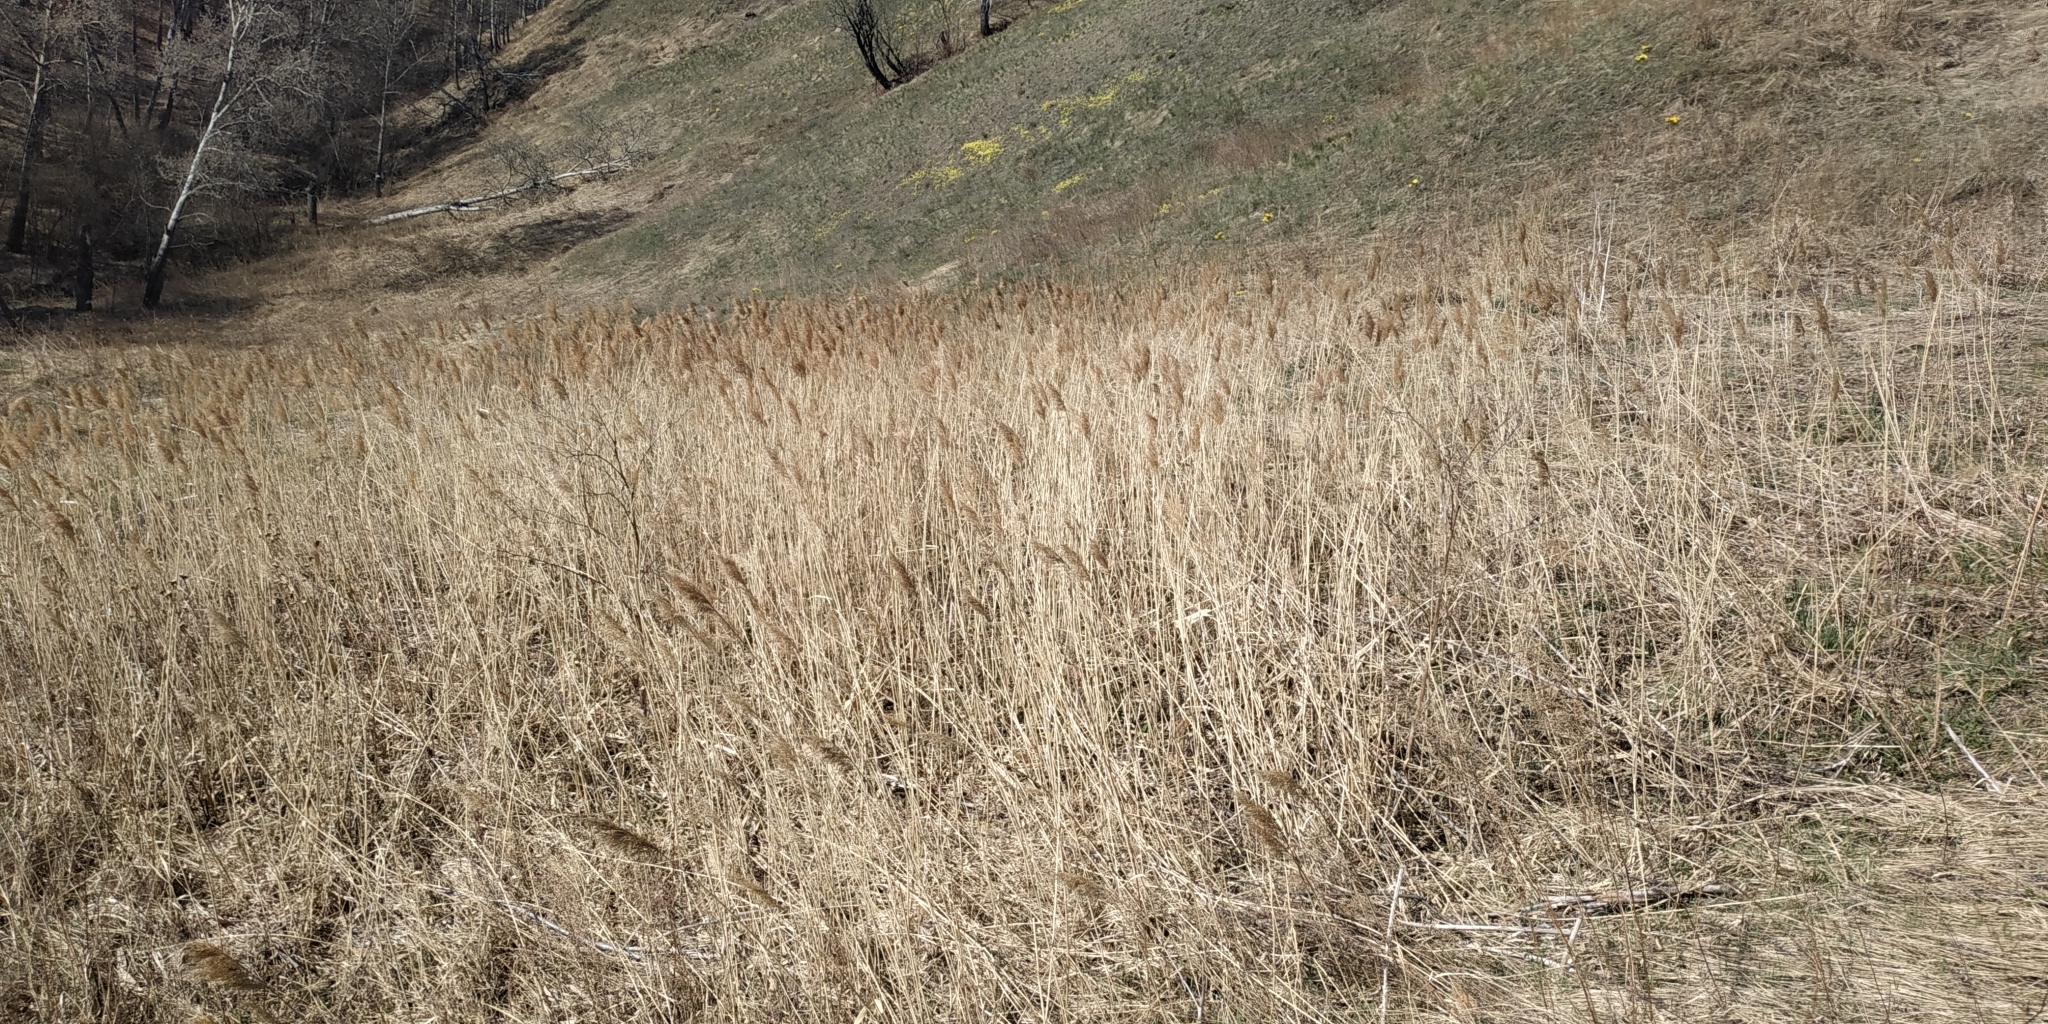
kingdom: Plantae
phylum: Tracheophyta
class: Liliopsida
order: Poales
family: Poaceae
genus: Phragmites
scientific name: Phragmites australis
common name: Common reed
